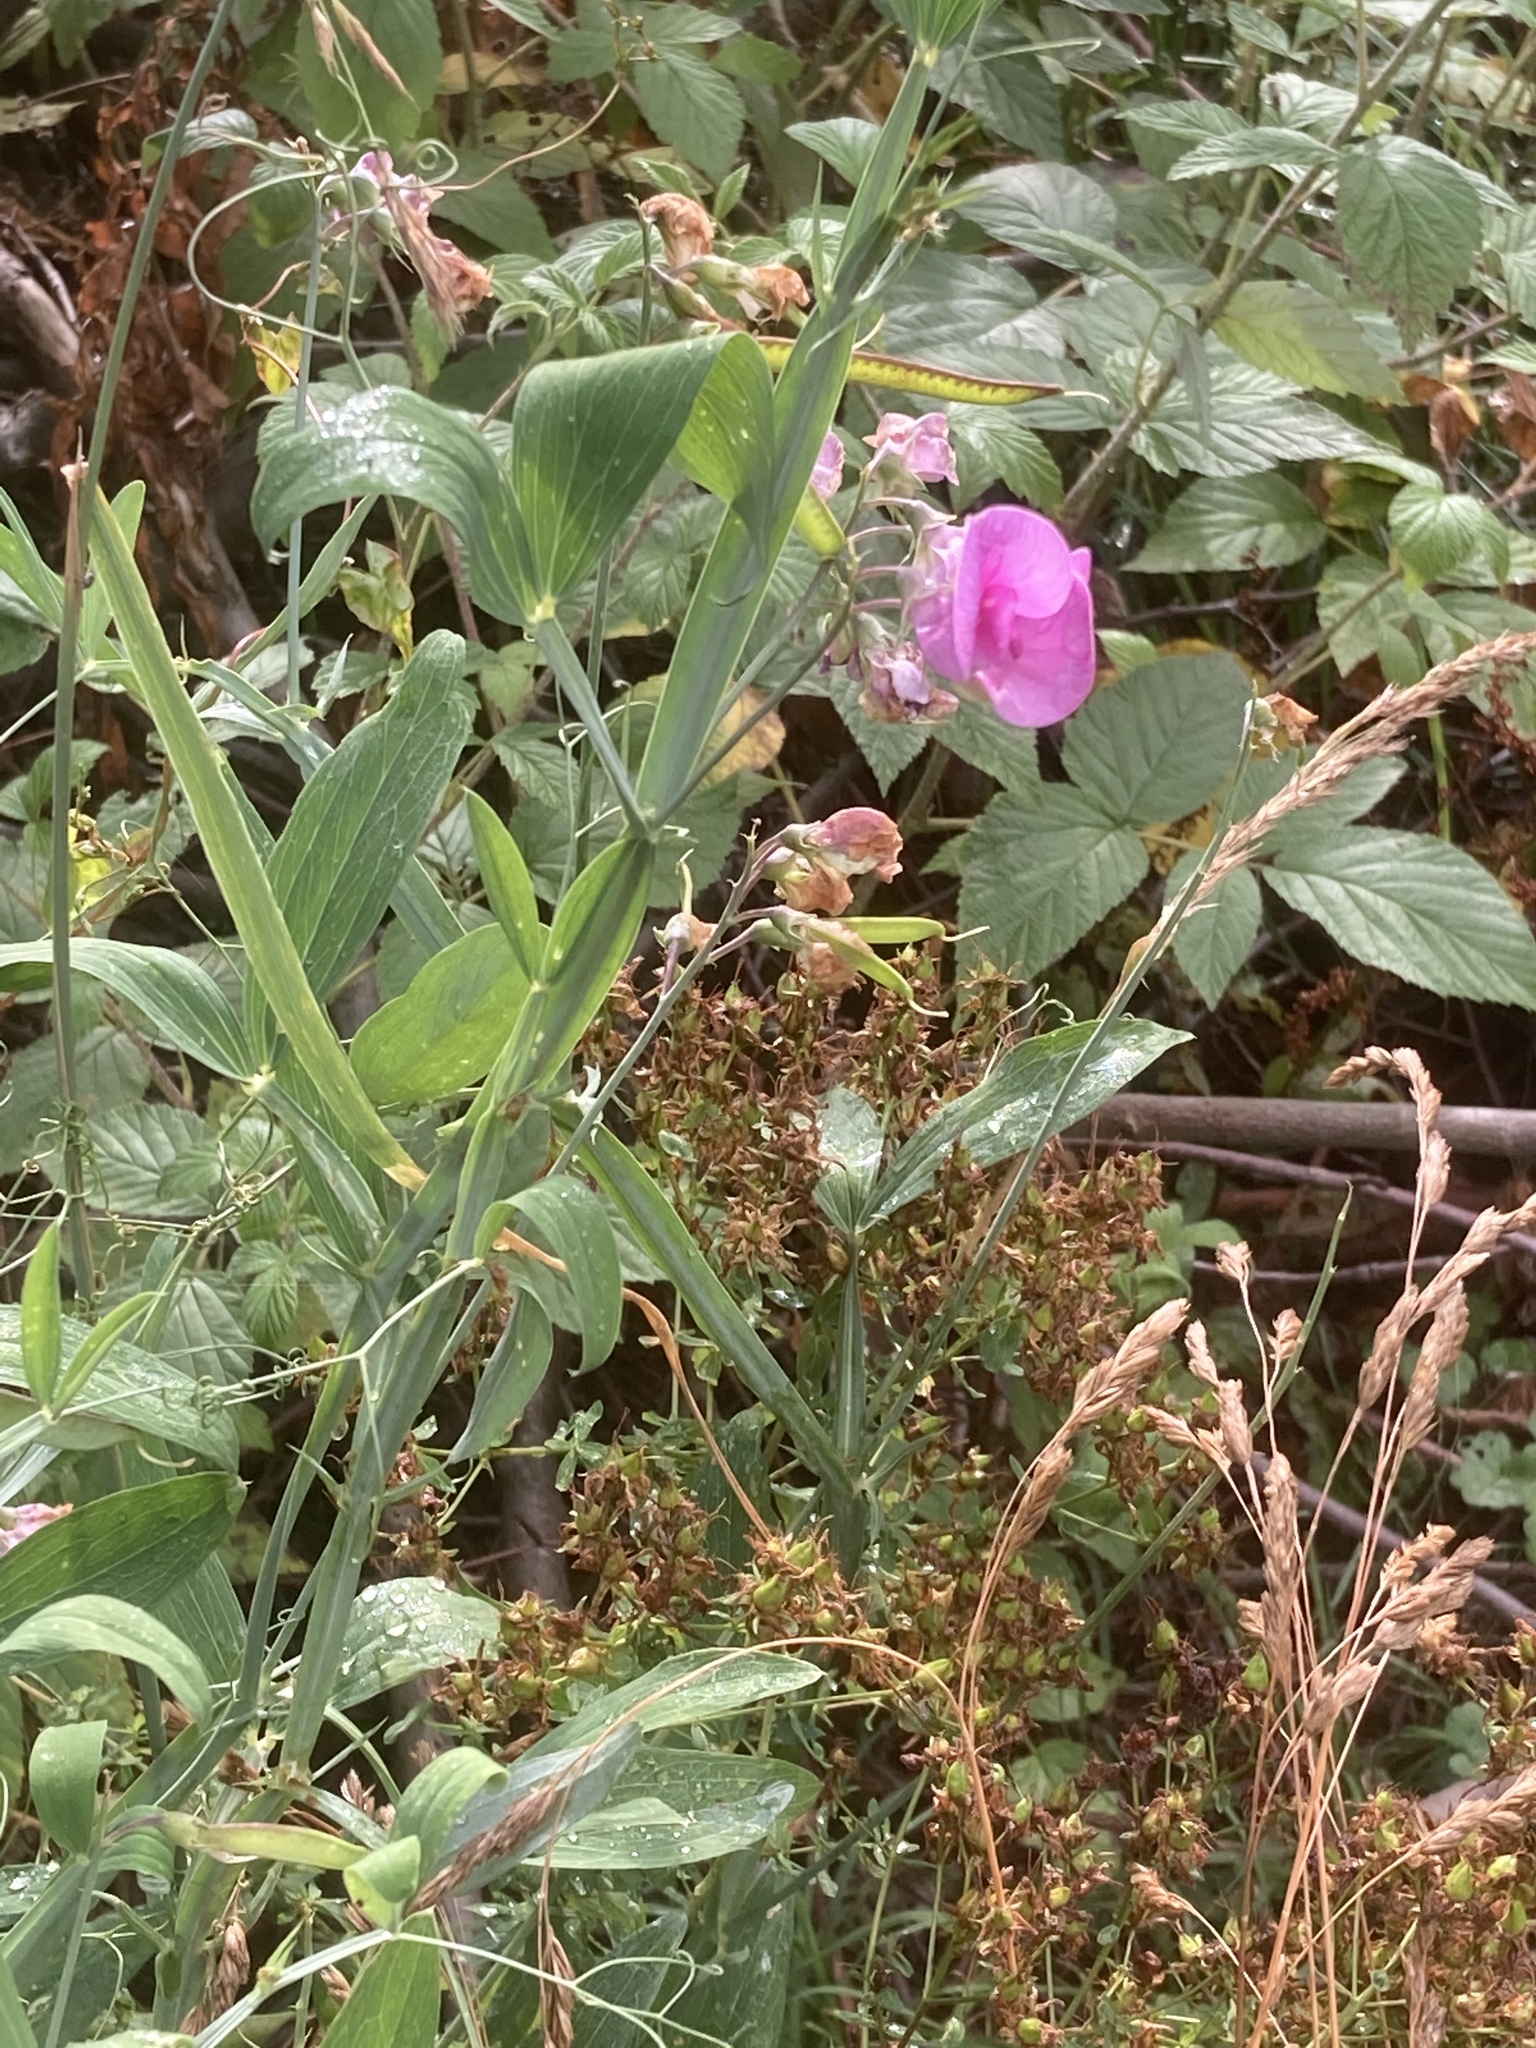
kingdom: Plantae
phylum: Tracheophyta
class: Magnoliopsida
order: Fabales
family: Fabaceae
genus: Lathyrus
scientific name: Lathyrus latifolius
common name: Perennial pea
